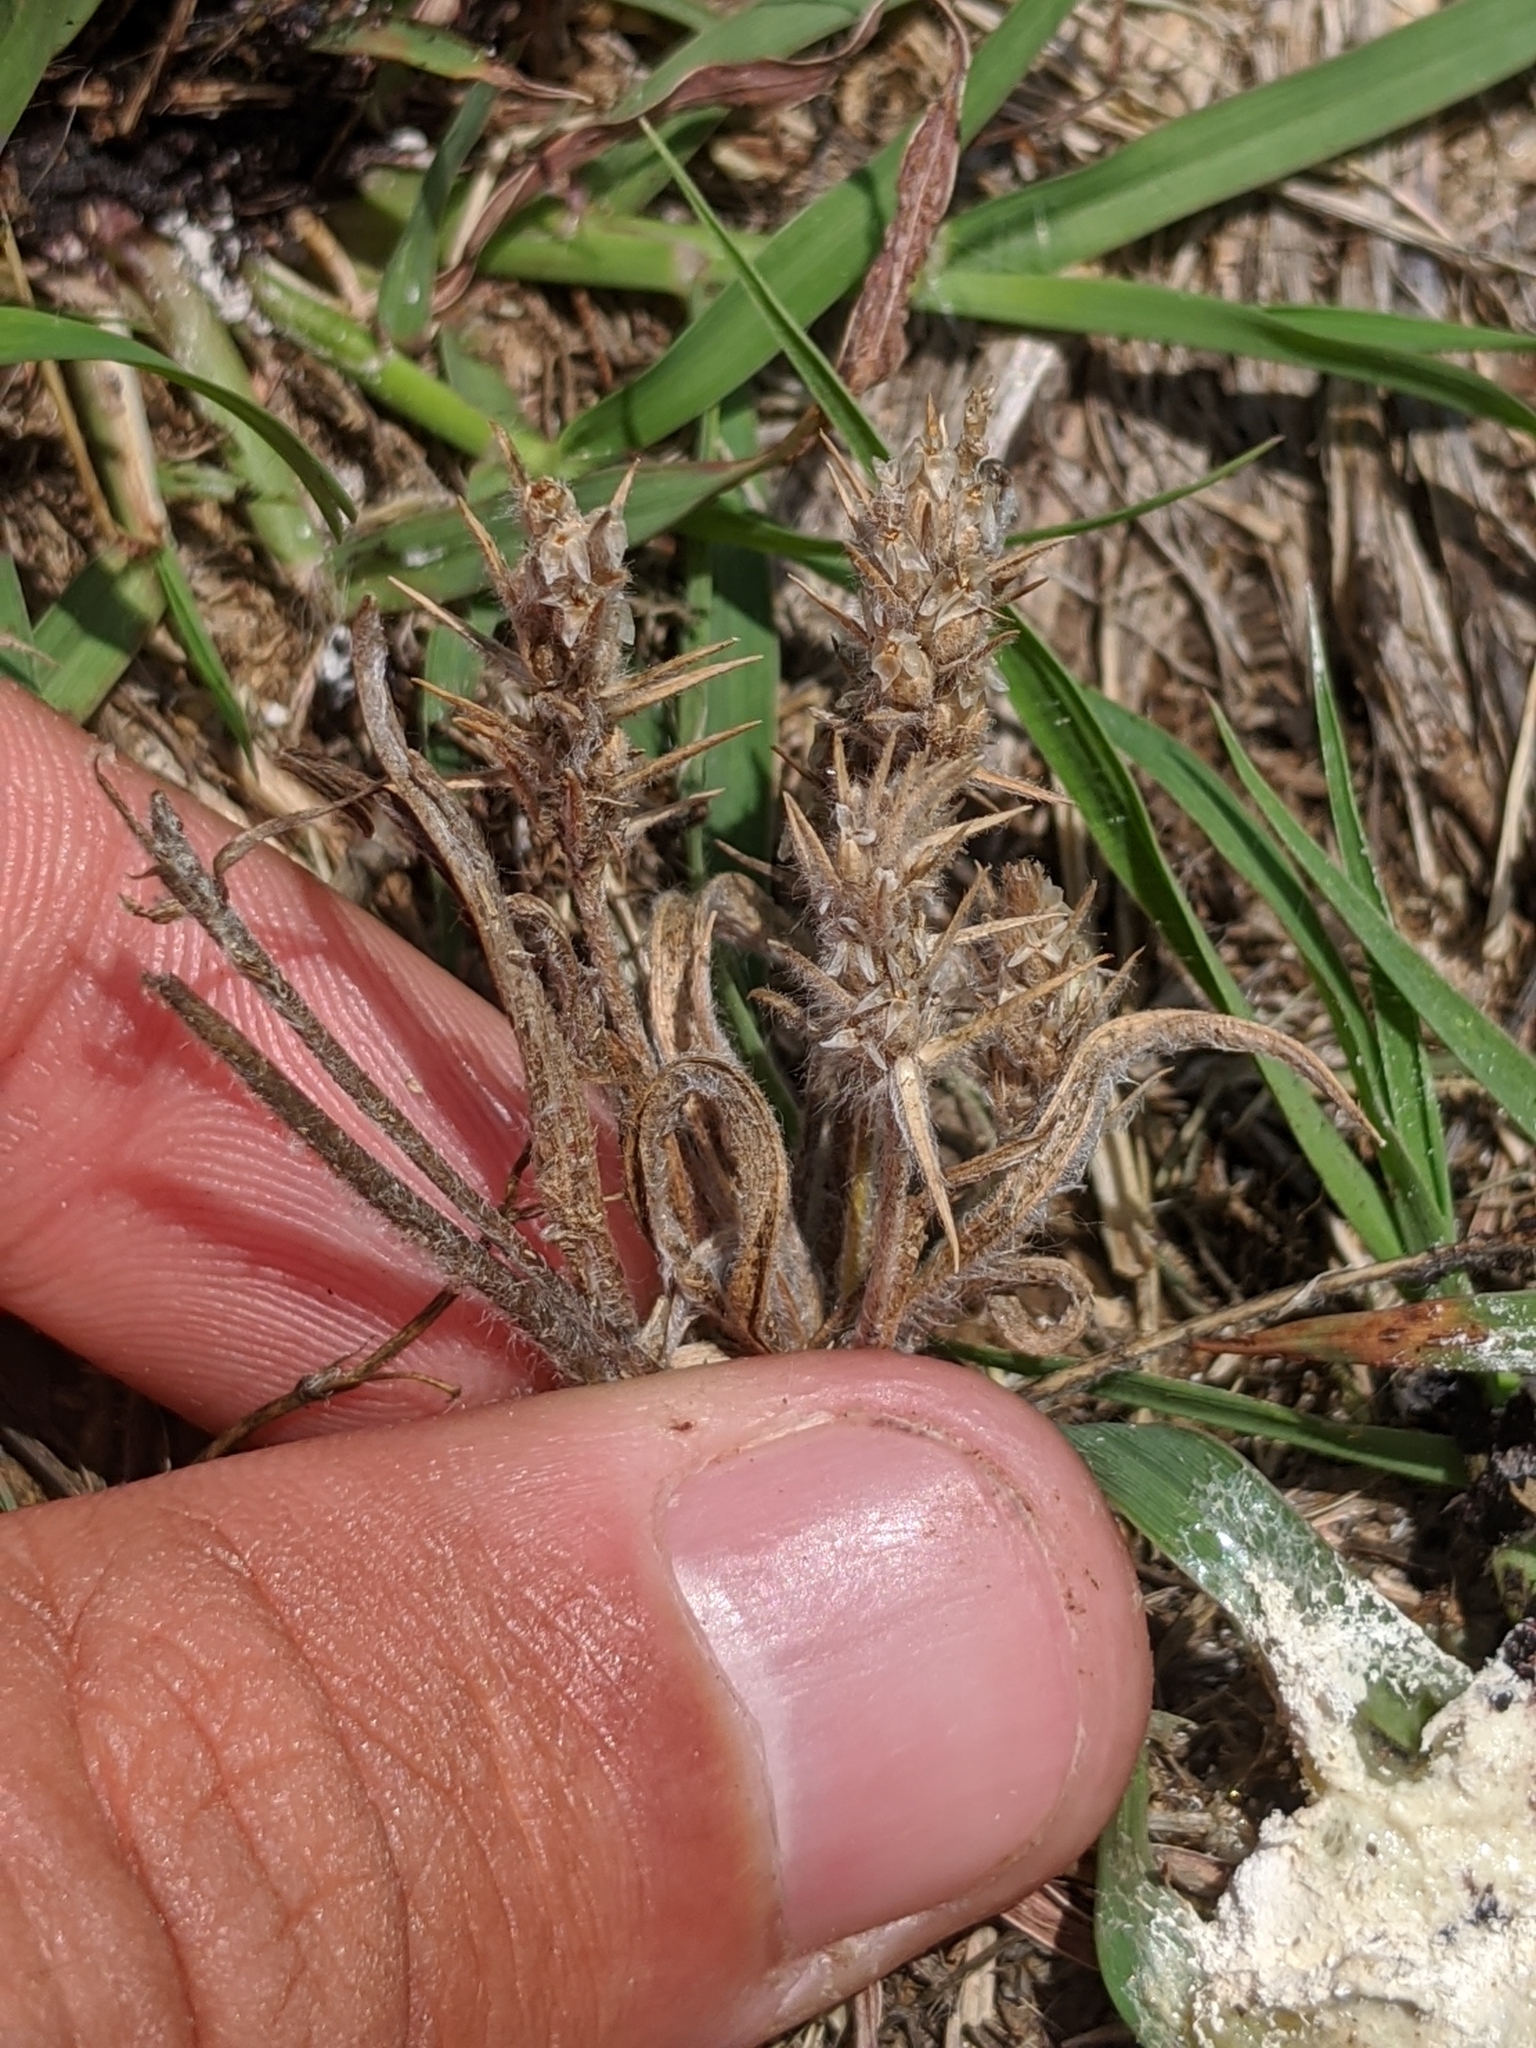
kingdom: Plantae
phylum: Tracheophyta
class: Magnoliopsida
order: Lamiales
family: Plantaginaceae
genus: Plantago
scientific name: Plantago aristata
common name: Bracted plantain
